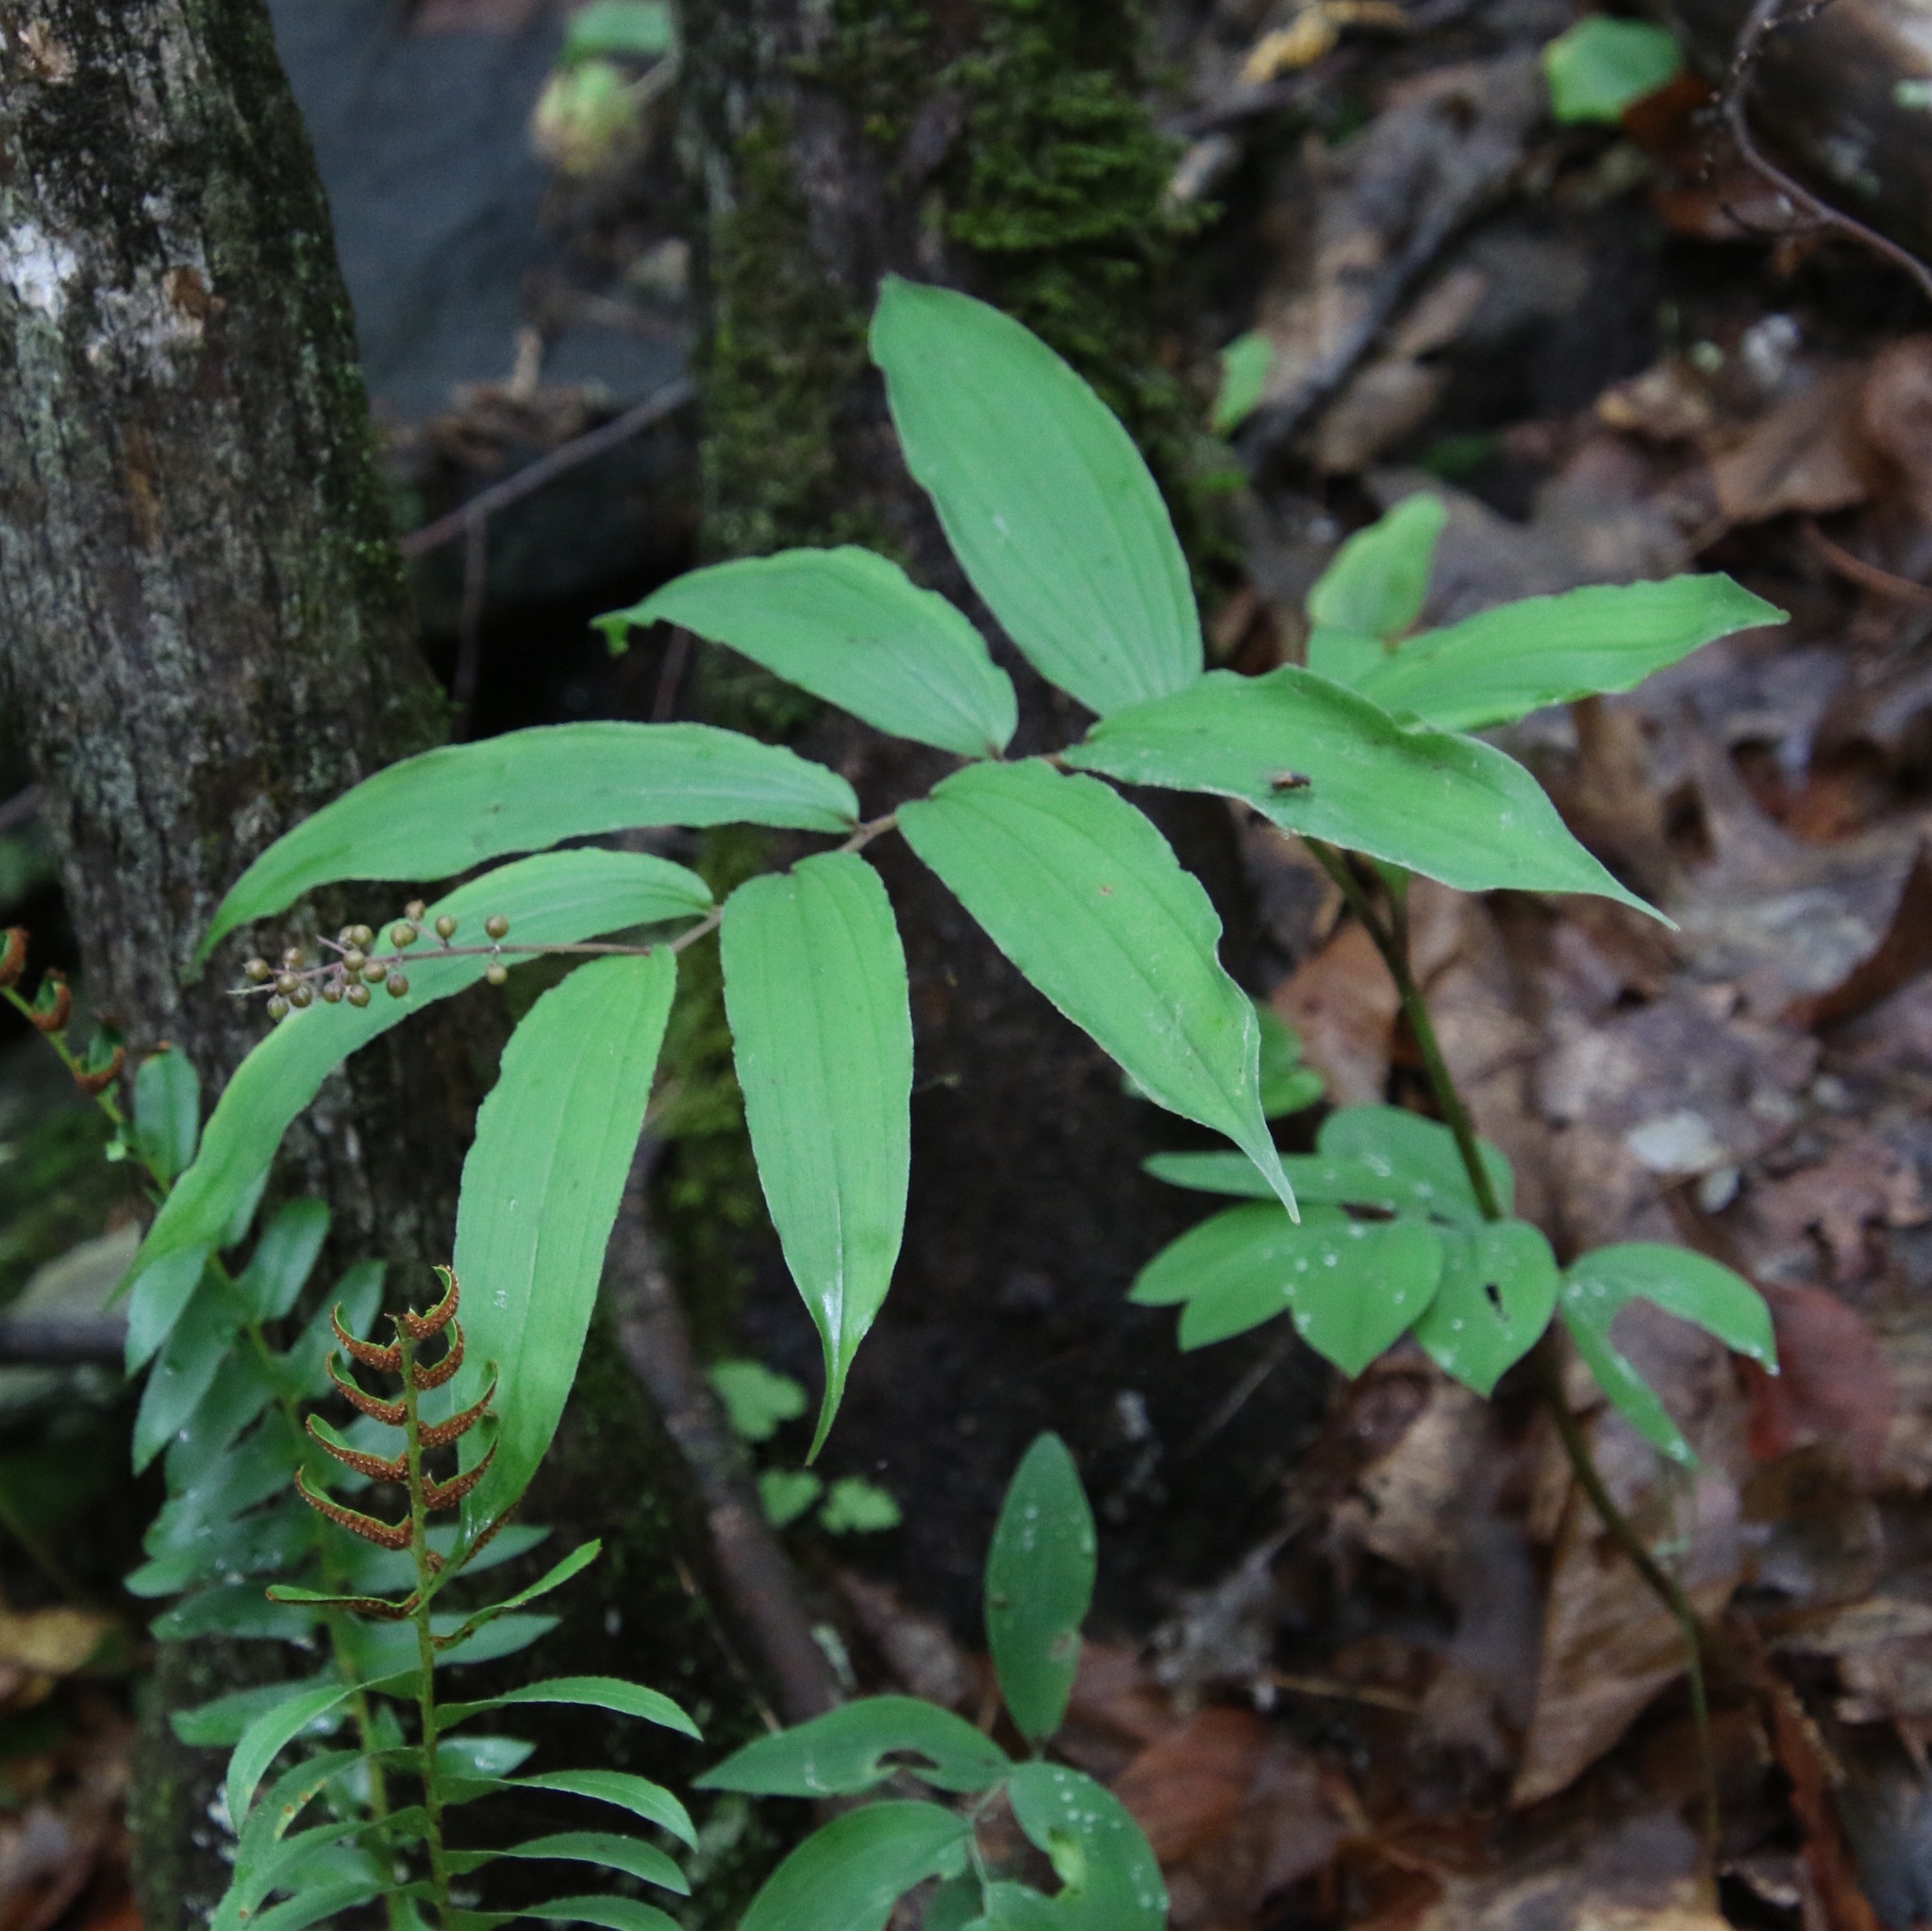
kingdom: Plantae
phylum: Tracheophyta
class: Liliopsida
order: Asparagales
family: Asparagaceae
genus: Maianthemum
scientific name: Maianthemum racemosum
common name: False spikenard
